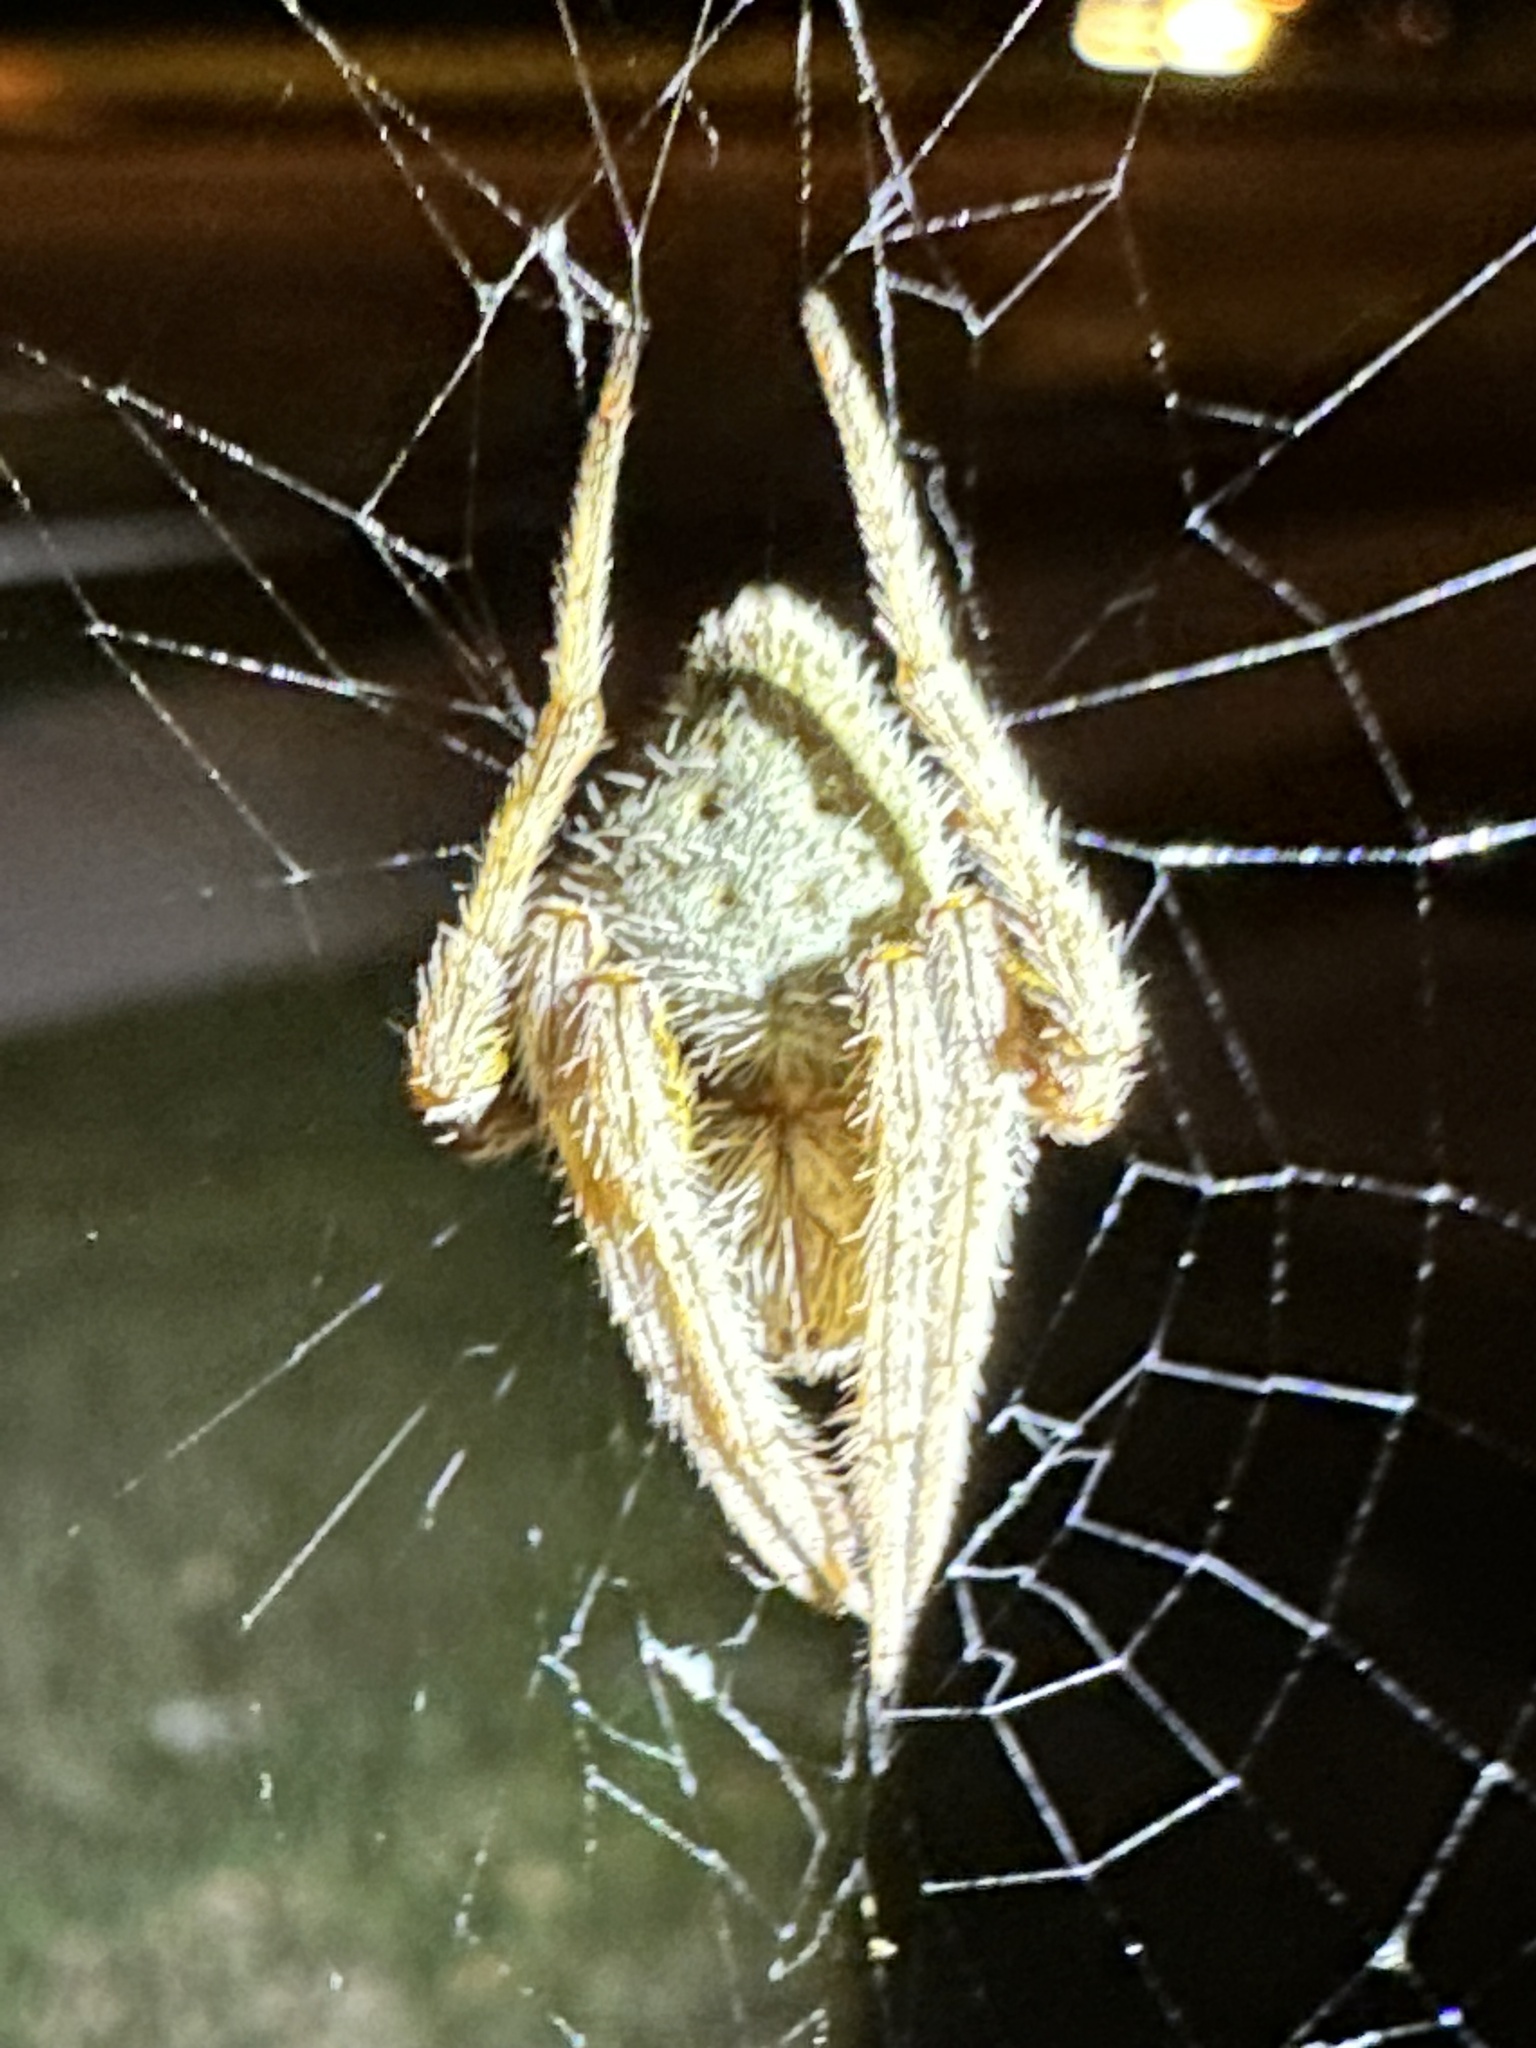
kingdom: Animalia
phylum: Arthropoda
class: Arachnida
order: Araneae
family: Araneidae
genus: Eriophora
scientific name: Eriophora ravilla
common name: Orb weavers
